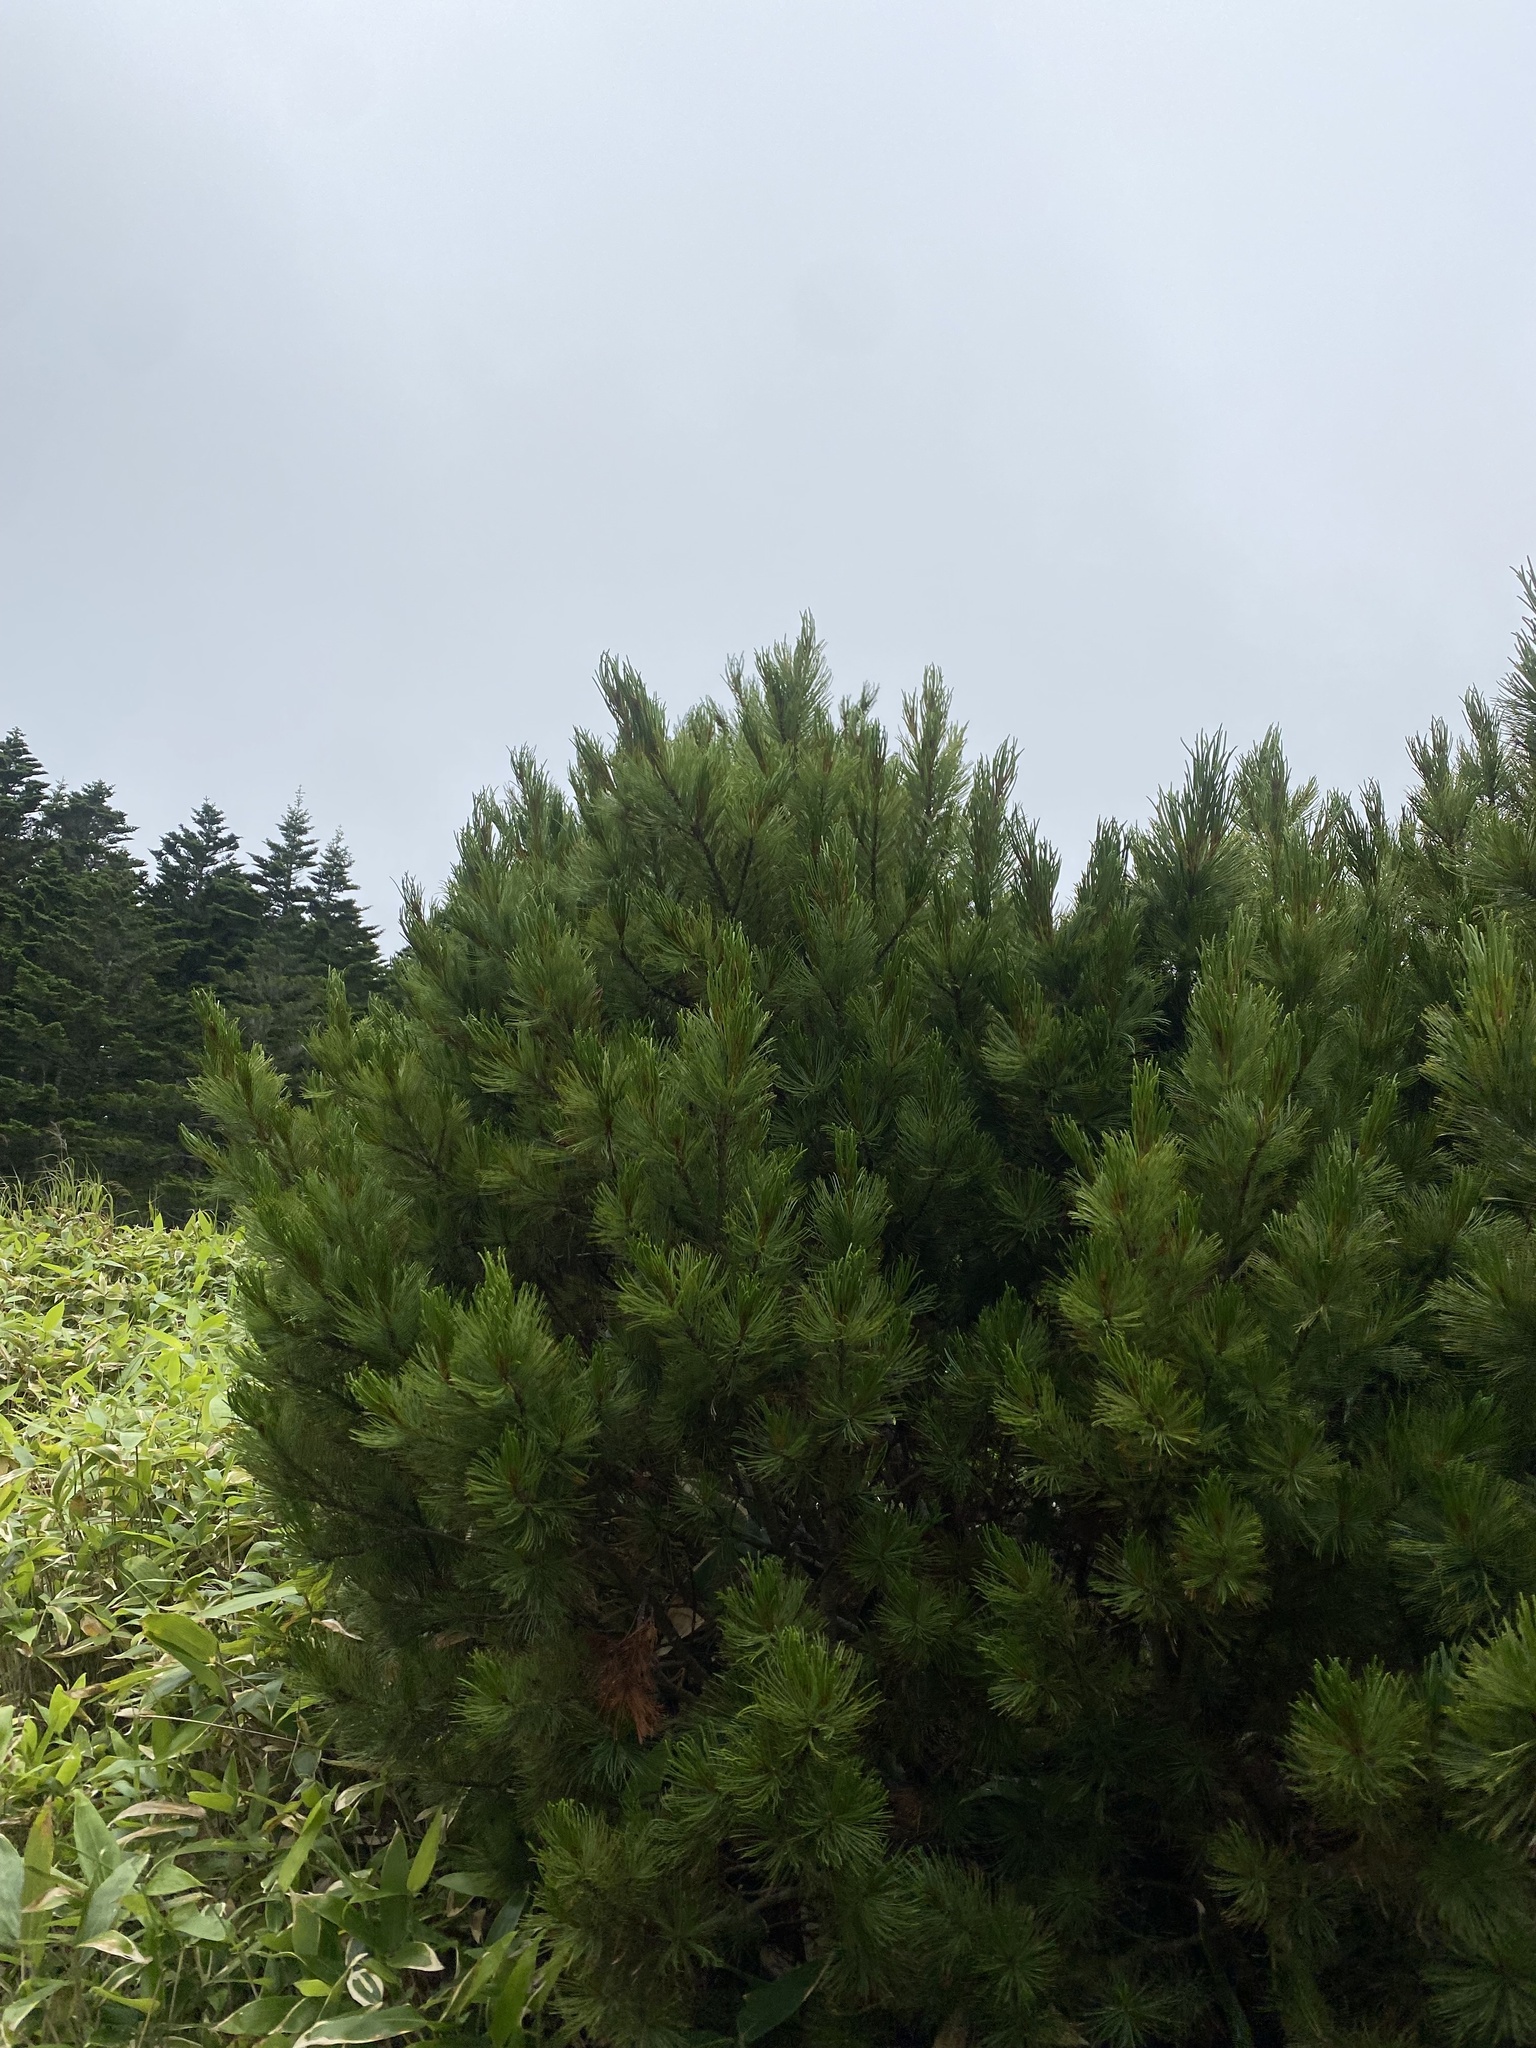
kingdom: Plantae
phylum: Tracheophyta
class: Pinopsida
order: Pinales
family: Pinaceae
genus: Pinus
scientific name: Pinus pumila
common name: Dwarf siberian pine
